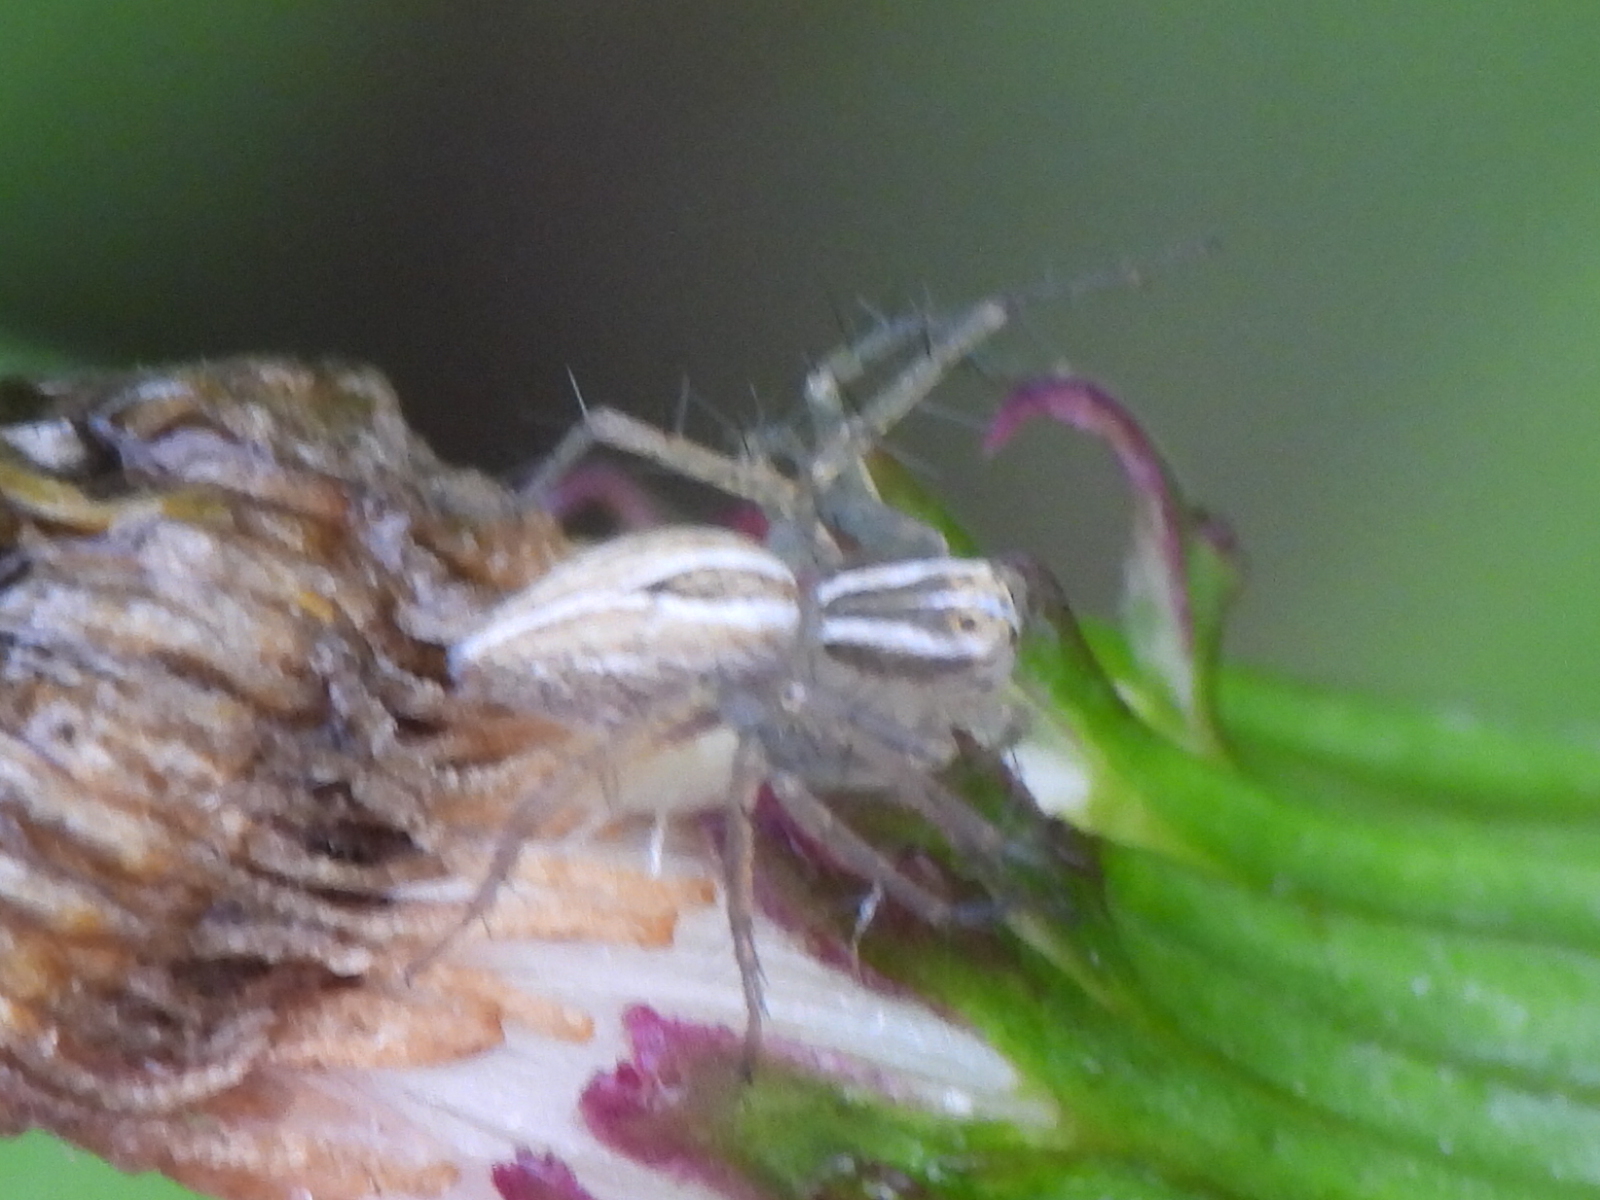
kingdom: Animalia
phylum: Arthropoda
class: Arachnida
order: Araneae
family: Oxyopidae
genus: Oxyopes
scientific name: Oxyopes salticus
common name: Lynx spiders
